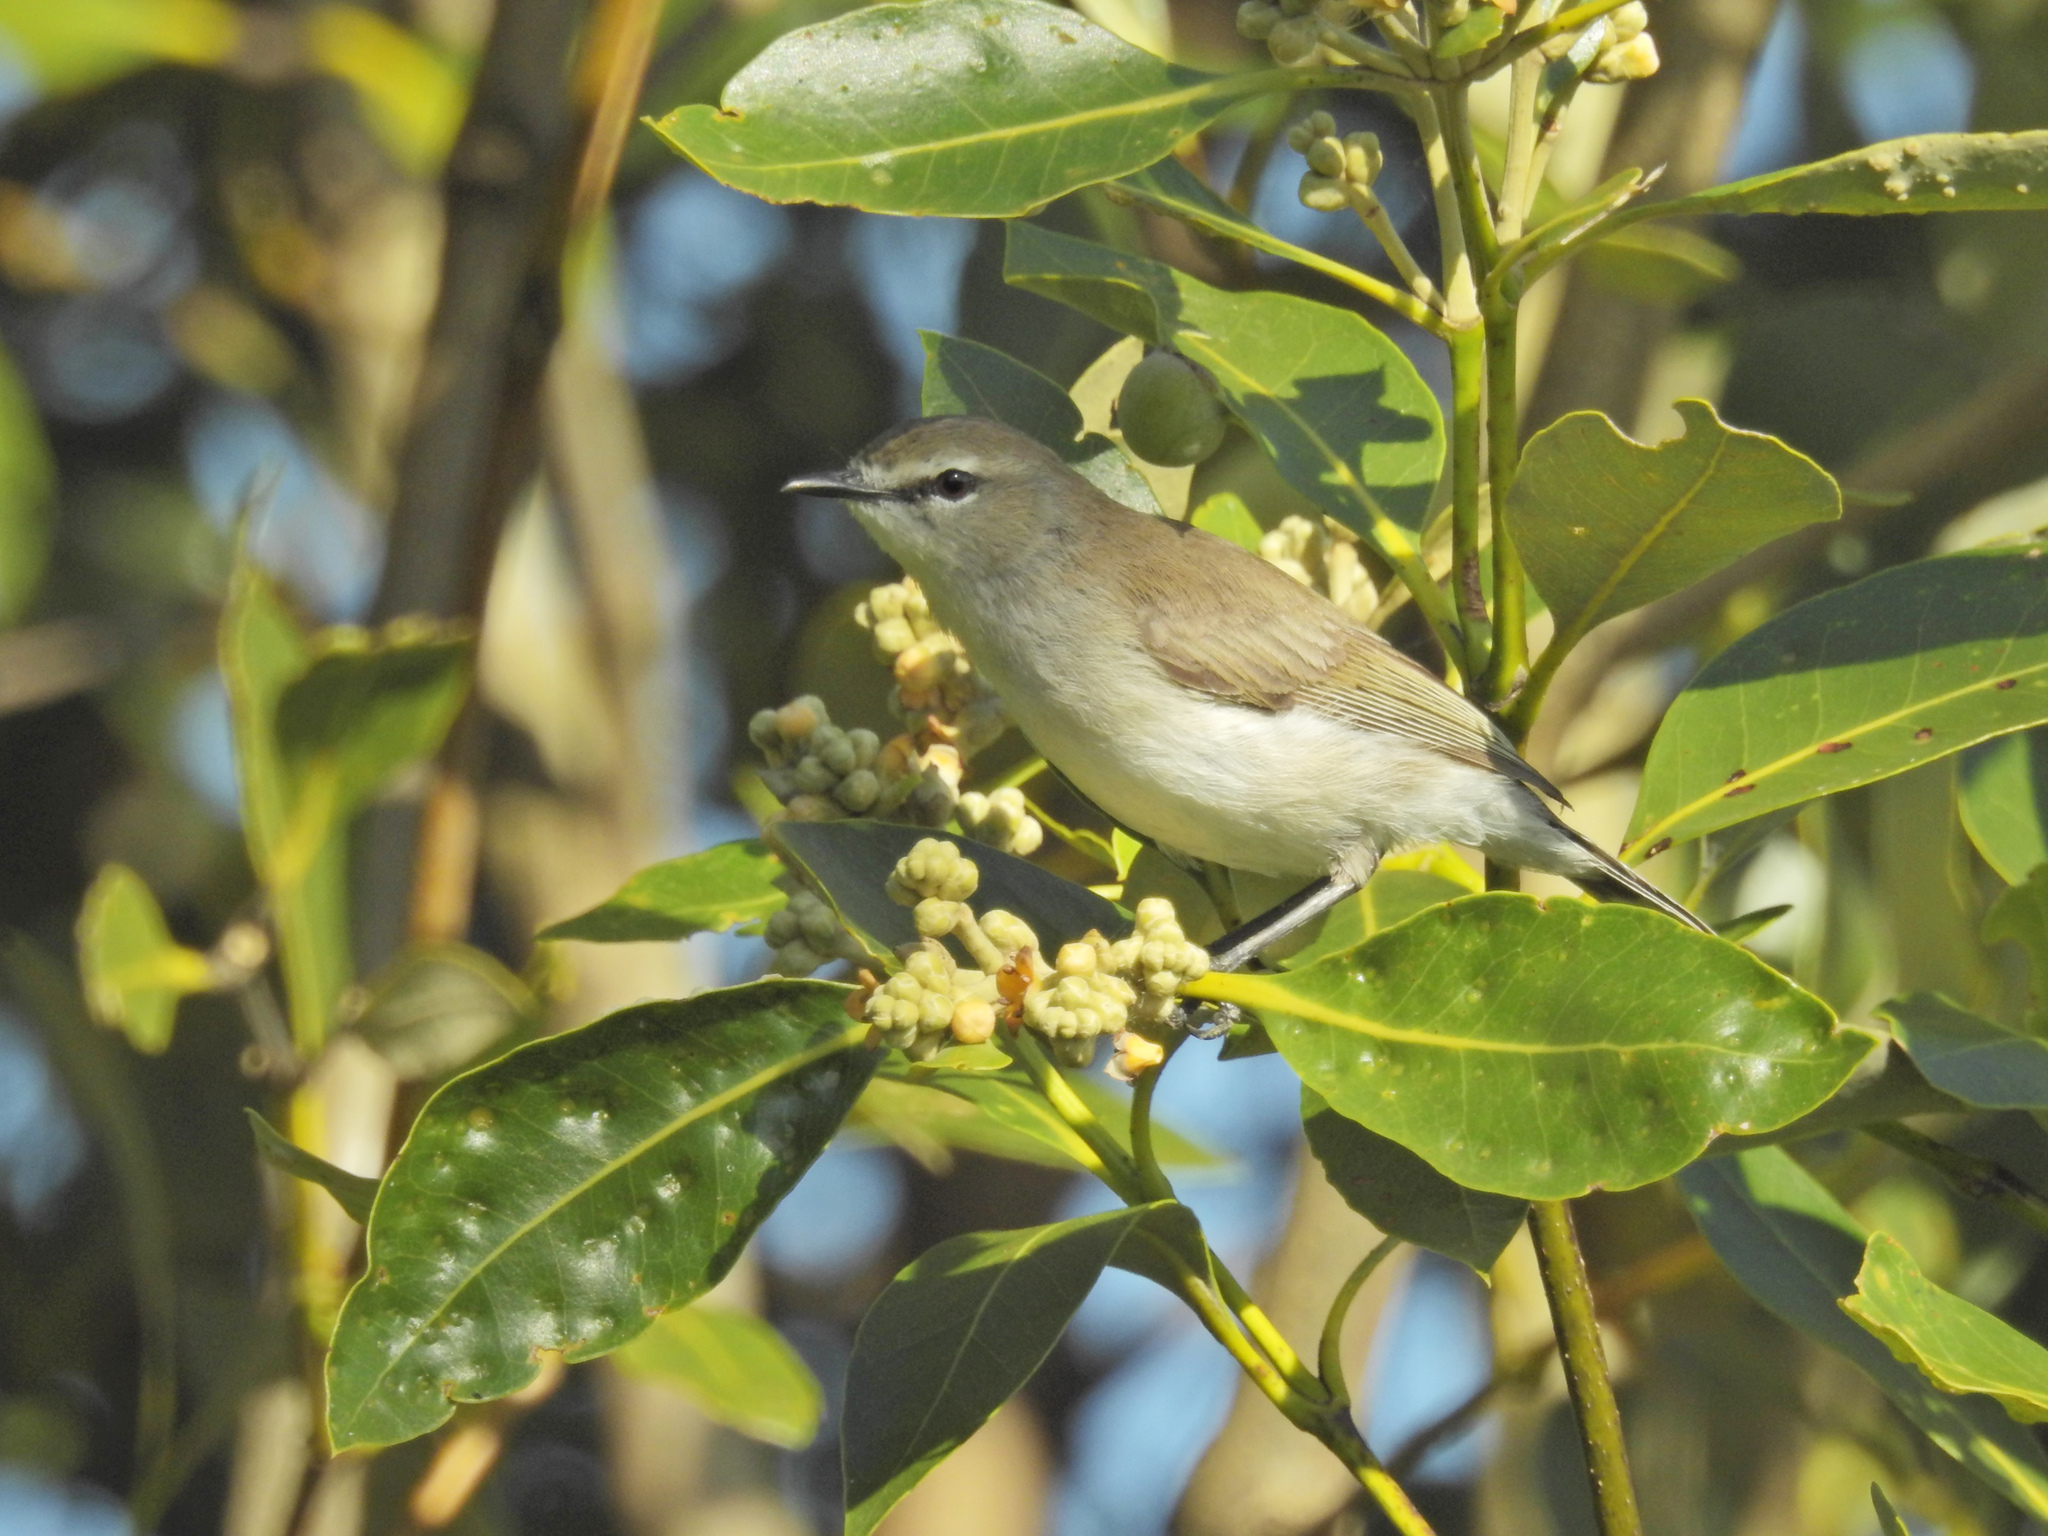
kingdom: Animalia
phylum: Chordata
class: Aves
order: Passeriformes
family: Acanthizidae
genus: Gerygone
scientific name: Gerygone levigaster
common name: Mangrove gerygone
